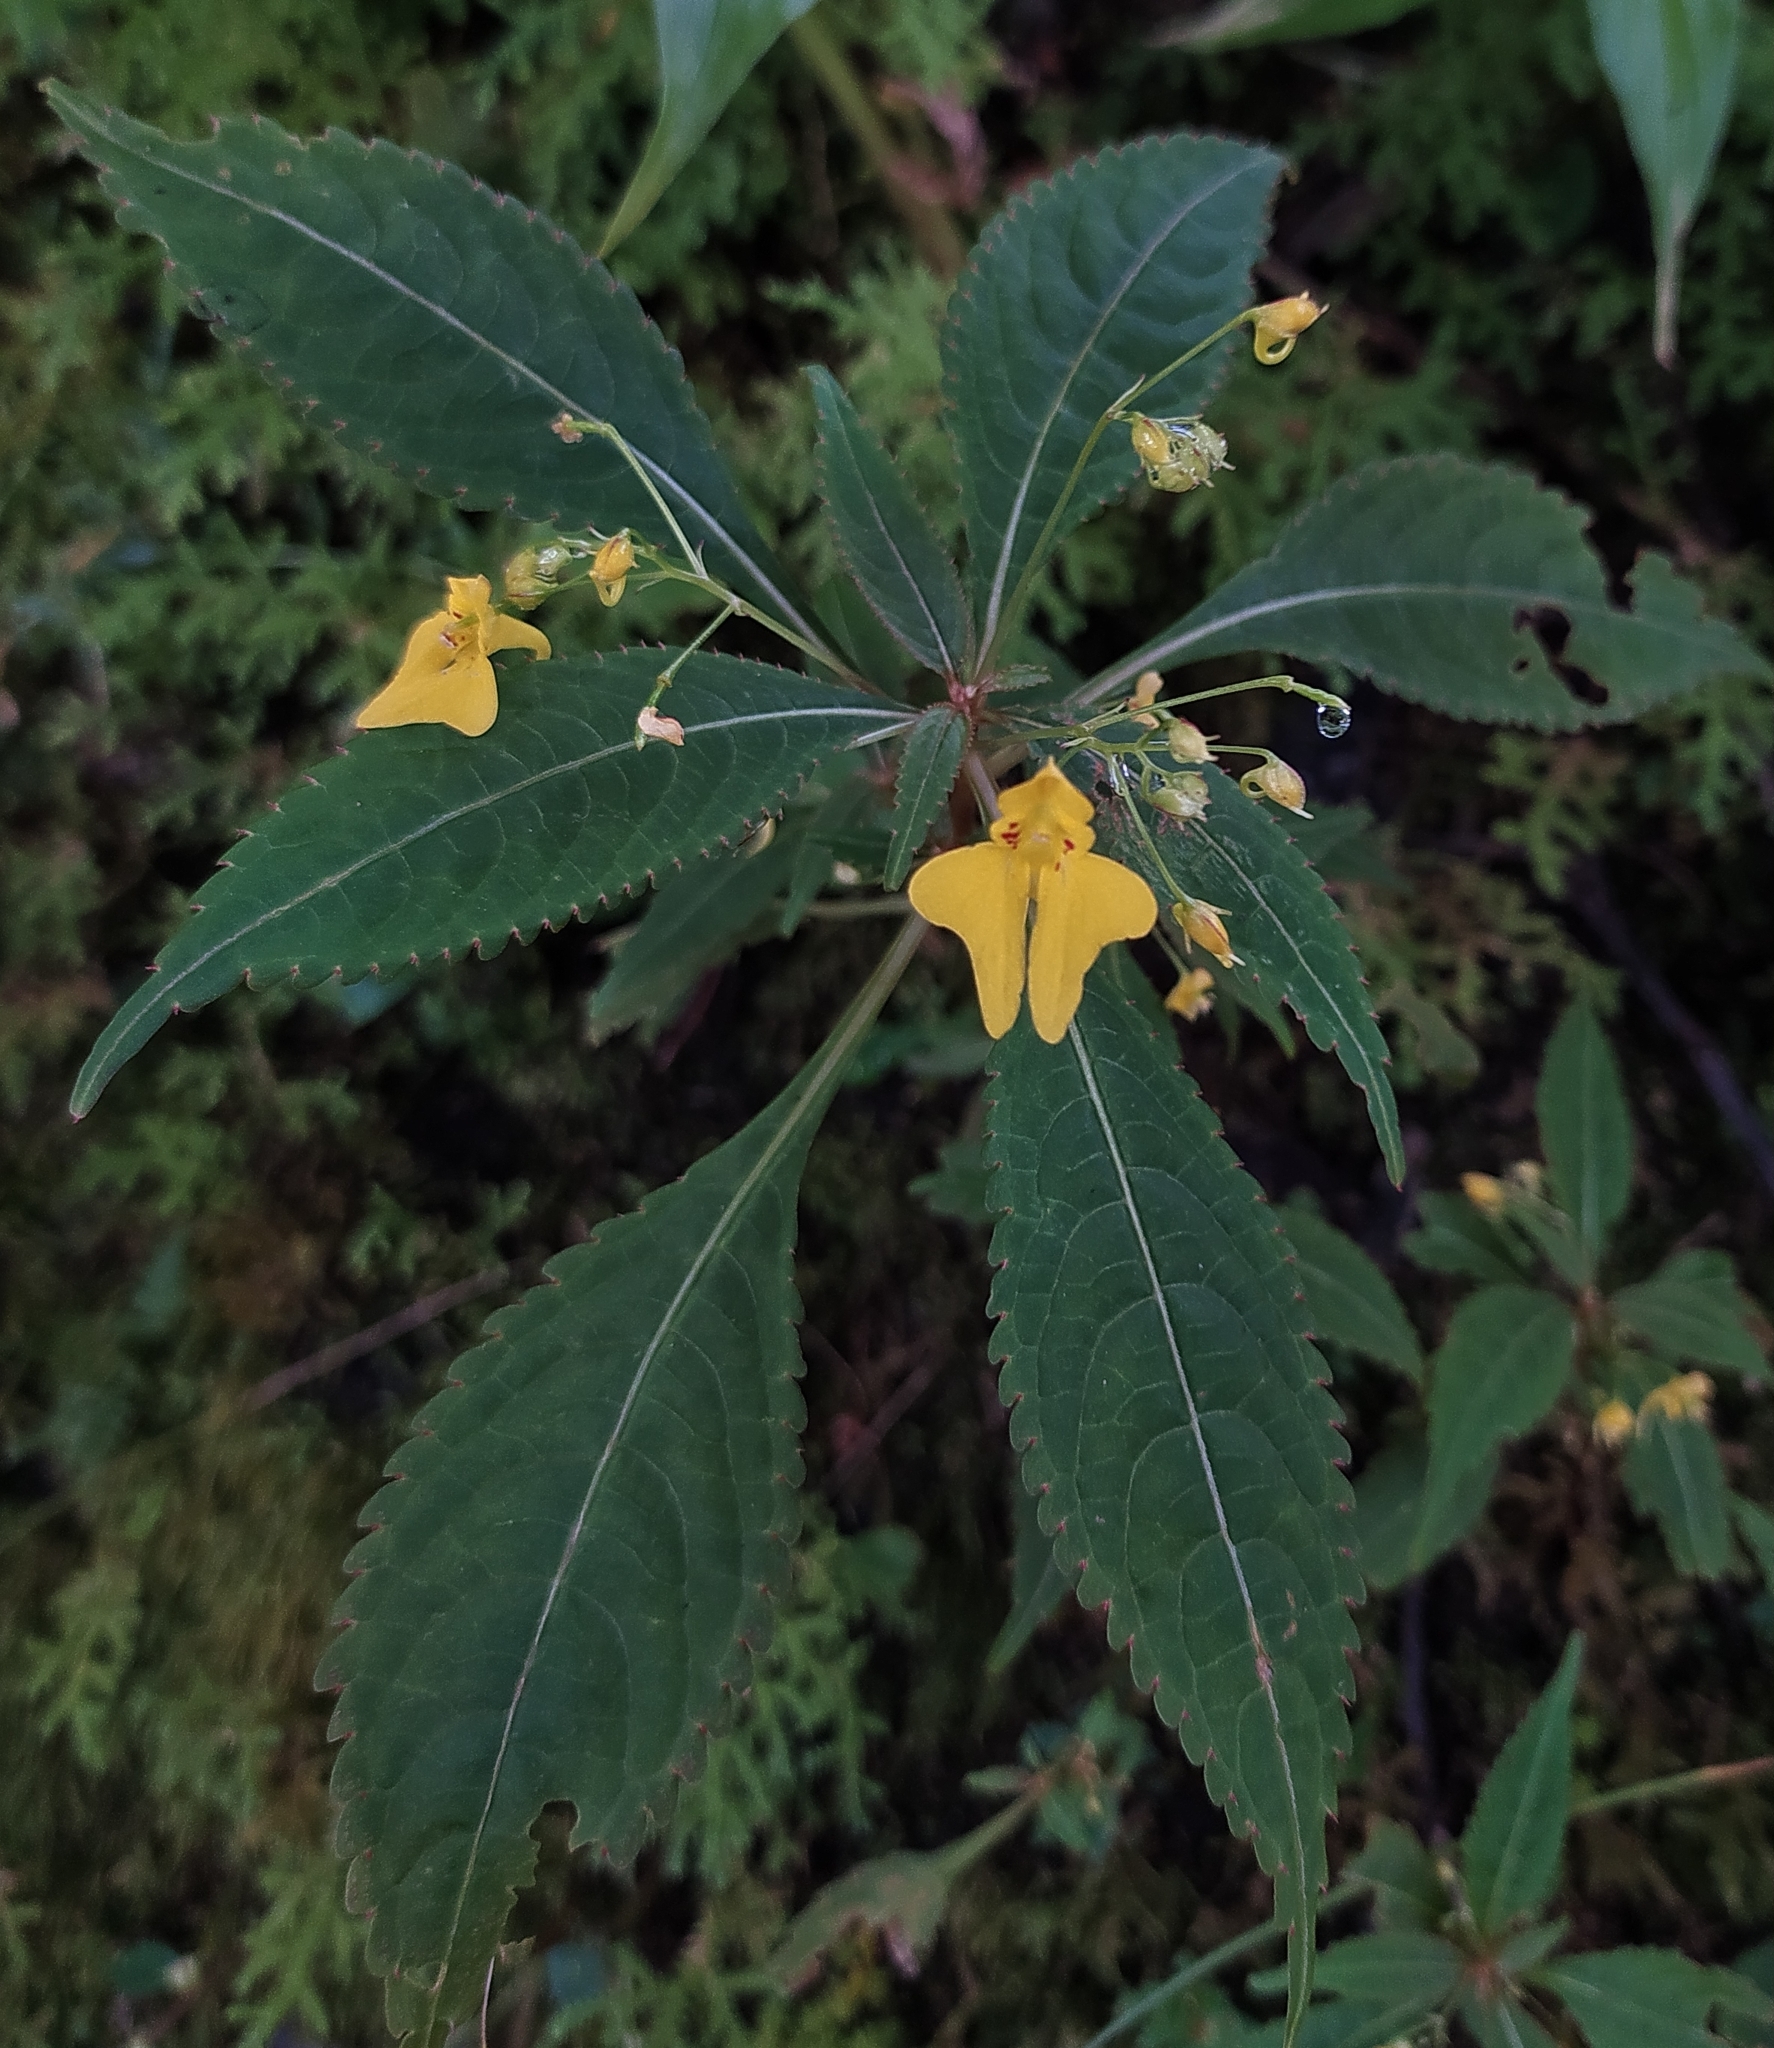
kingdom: Plantae
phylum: Tracheophyta
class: Magnoliopsida
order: Ericales
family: Balsaminaceae
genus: Impatiens
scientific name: Impatiens racemosa
